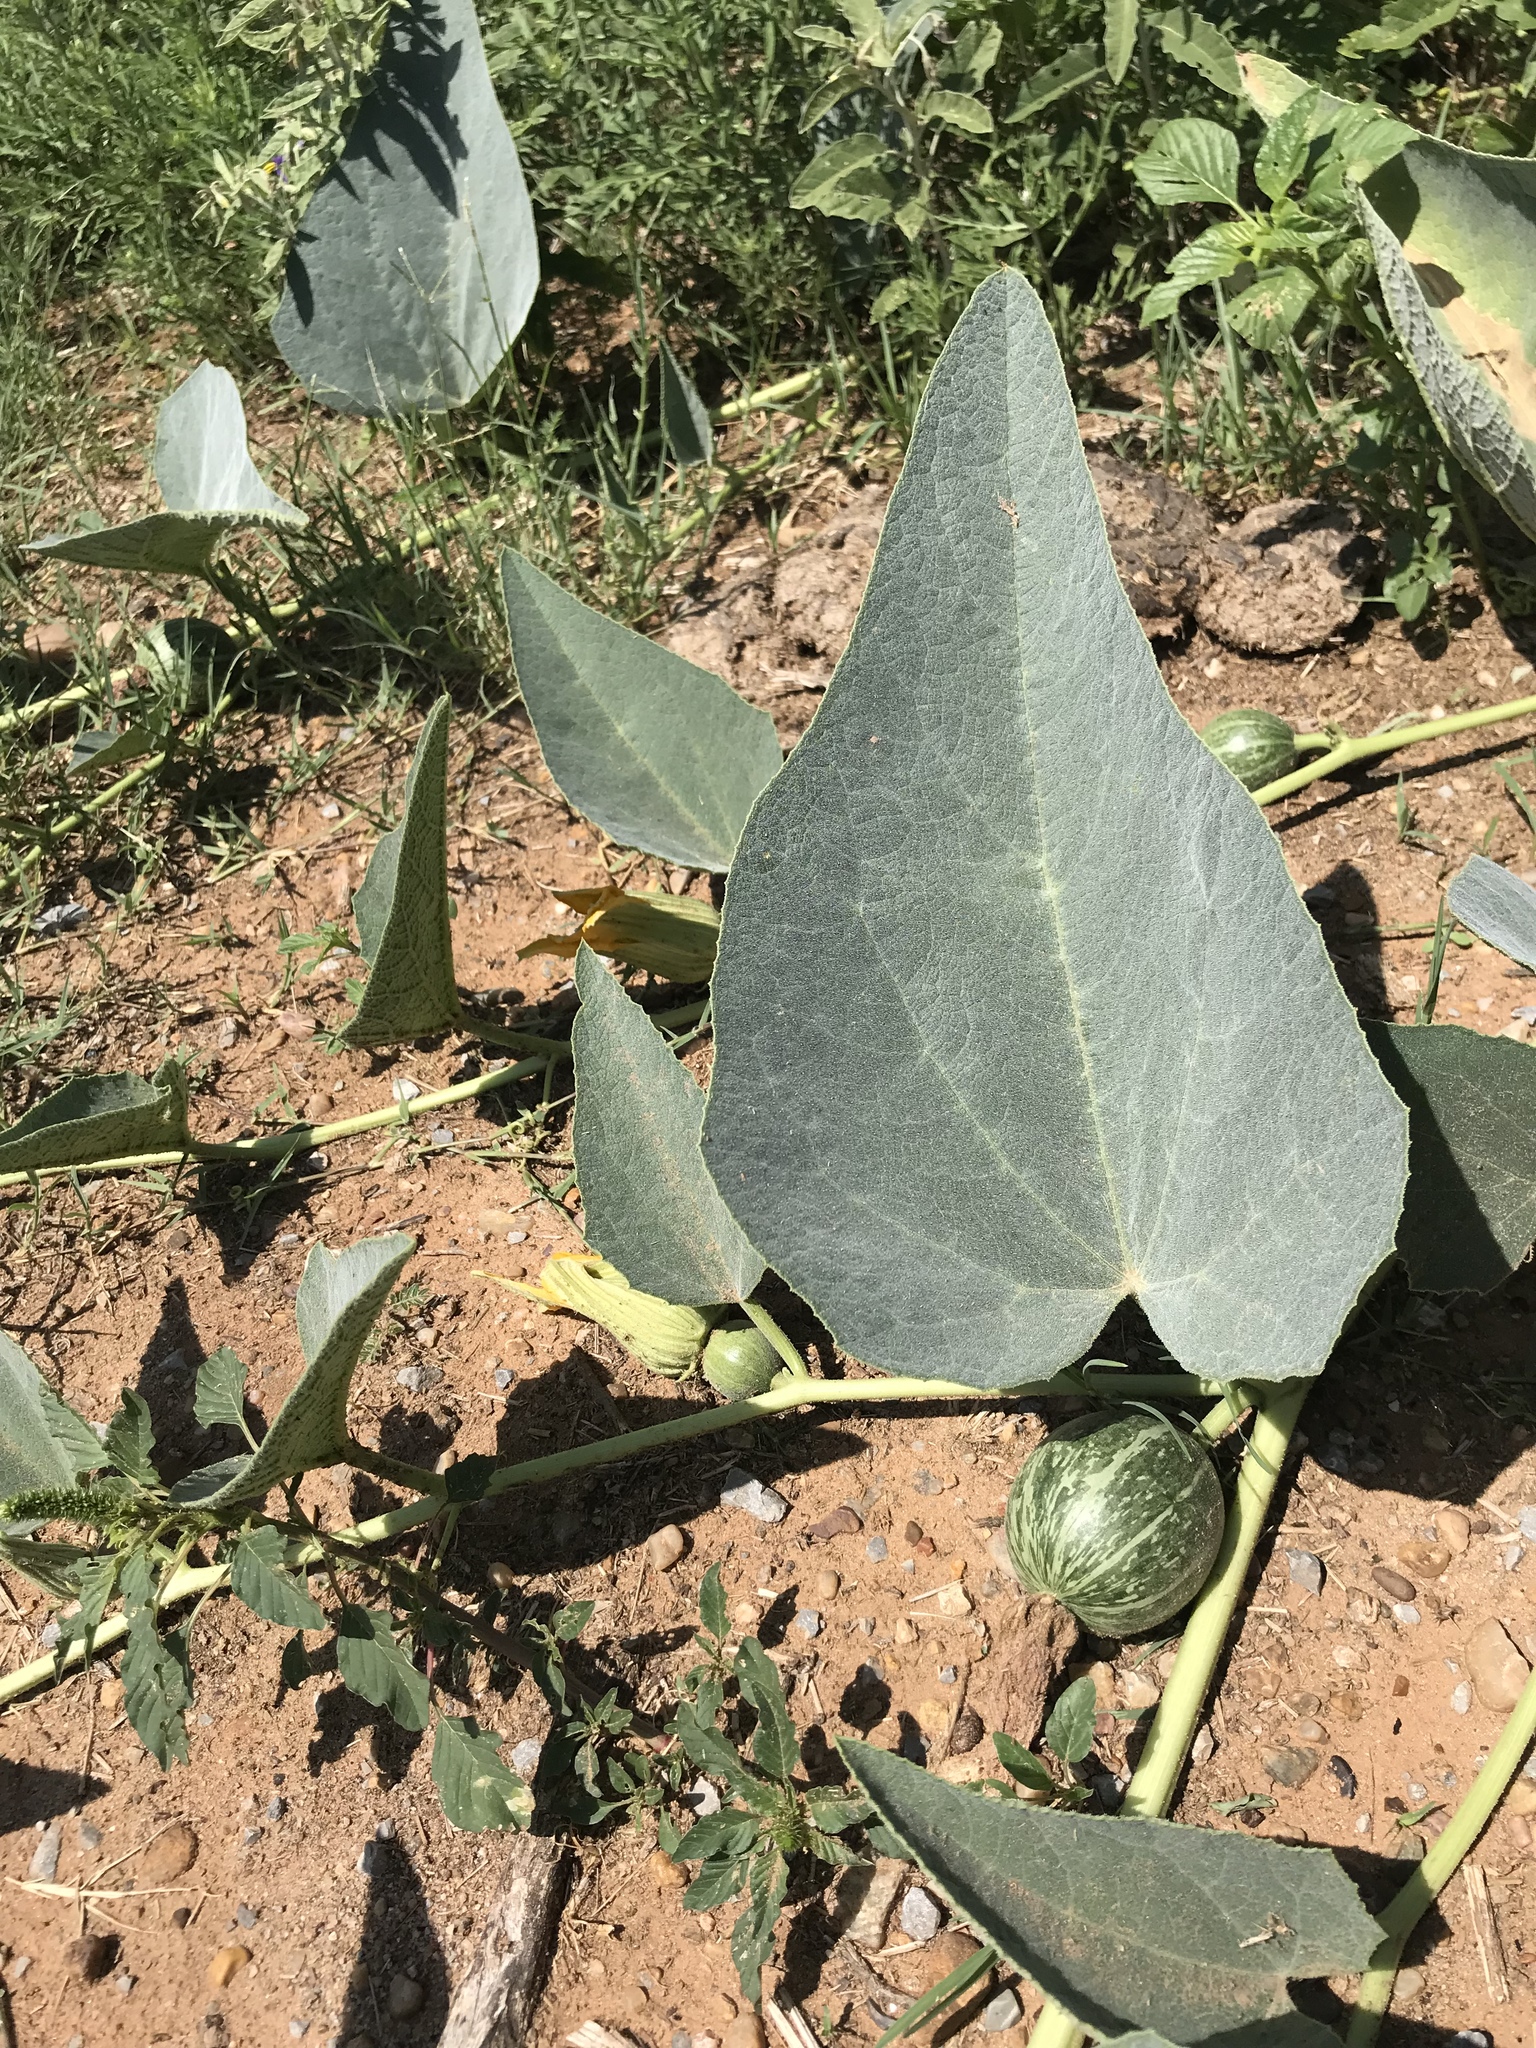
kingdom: Plantae
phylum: Tracheophyta
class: Magnoliopsida
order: Cucurbitales
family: Cucurbitaceae
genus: Cucurbita
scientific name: Cucurbita foetidissima
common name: Buffalo gourd
